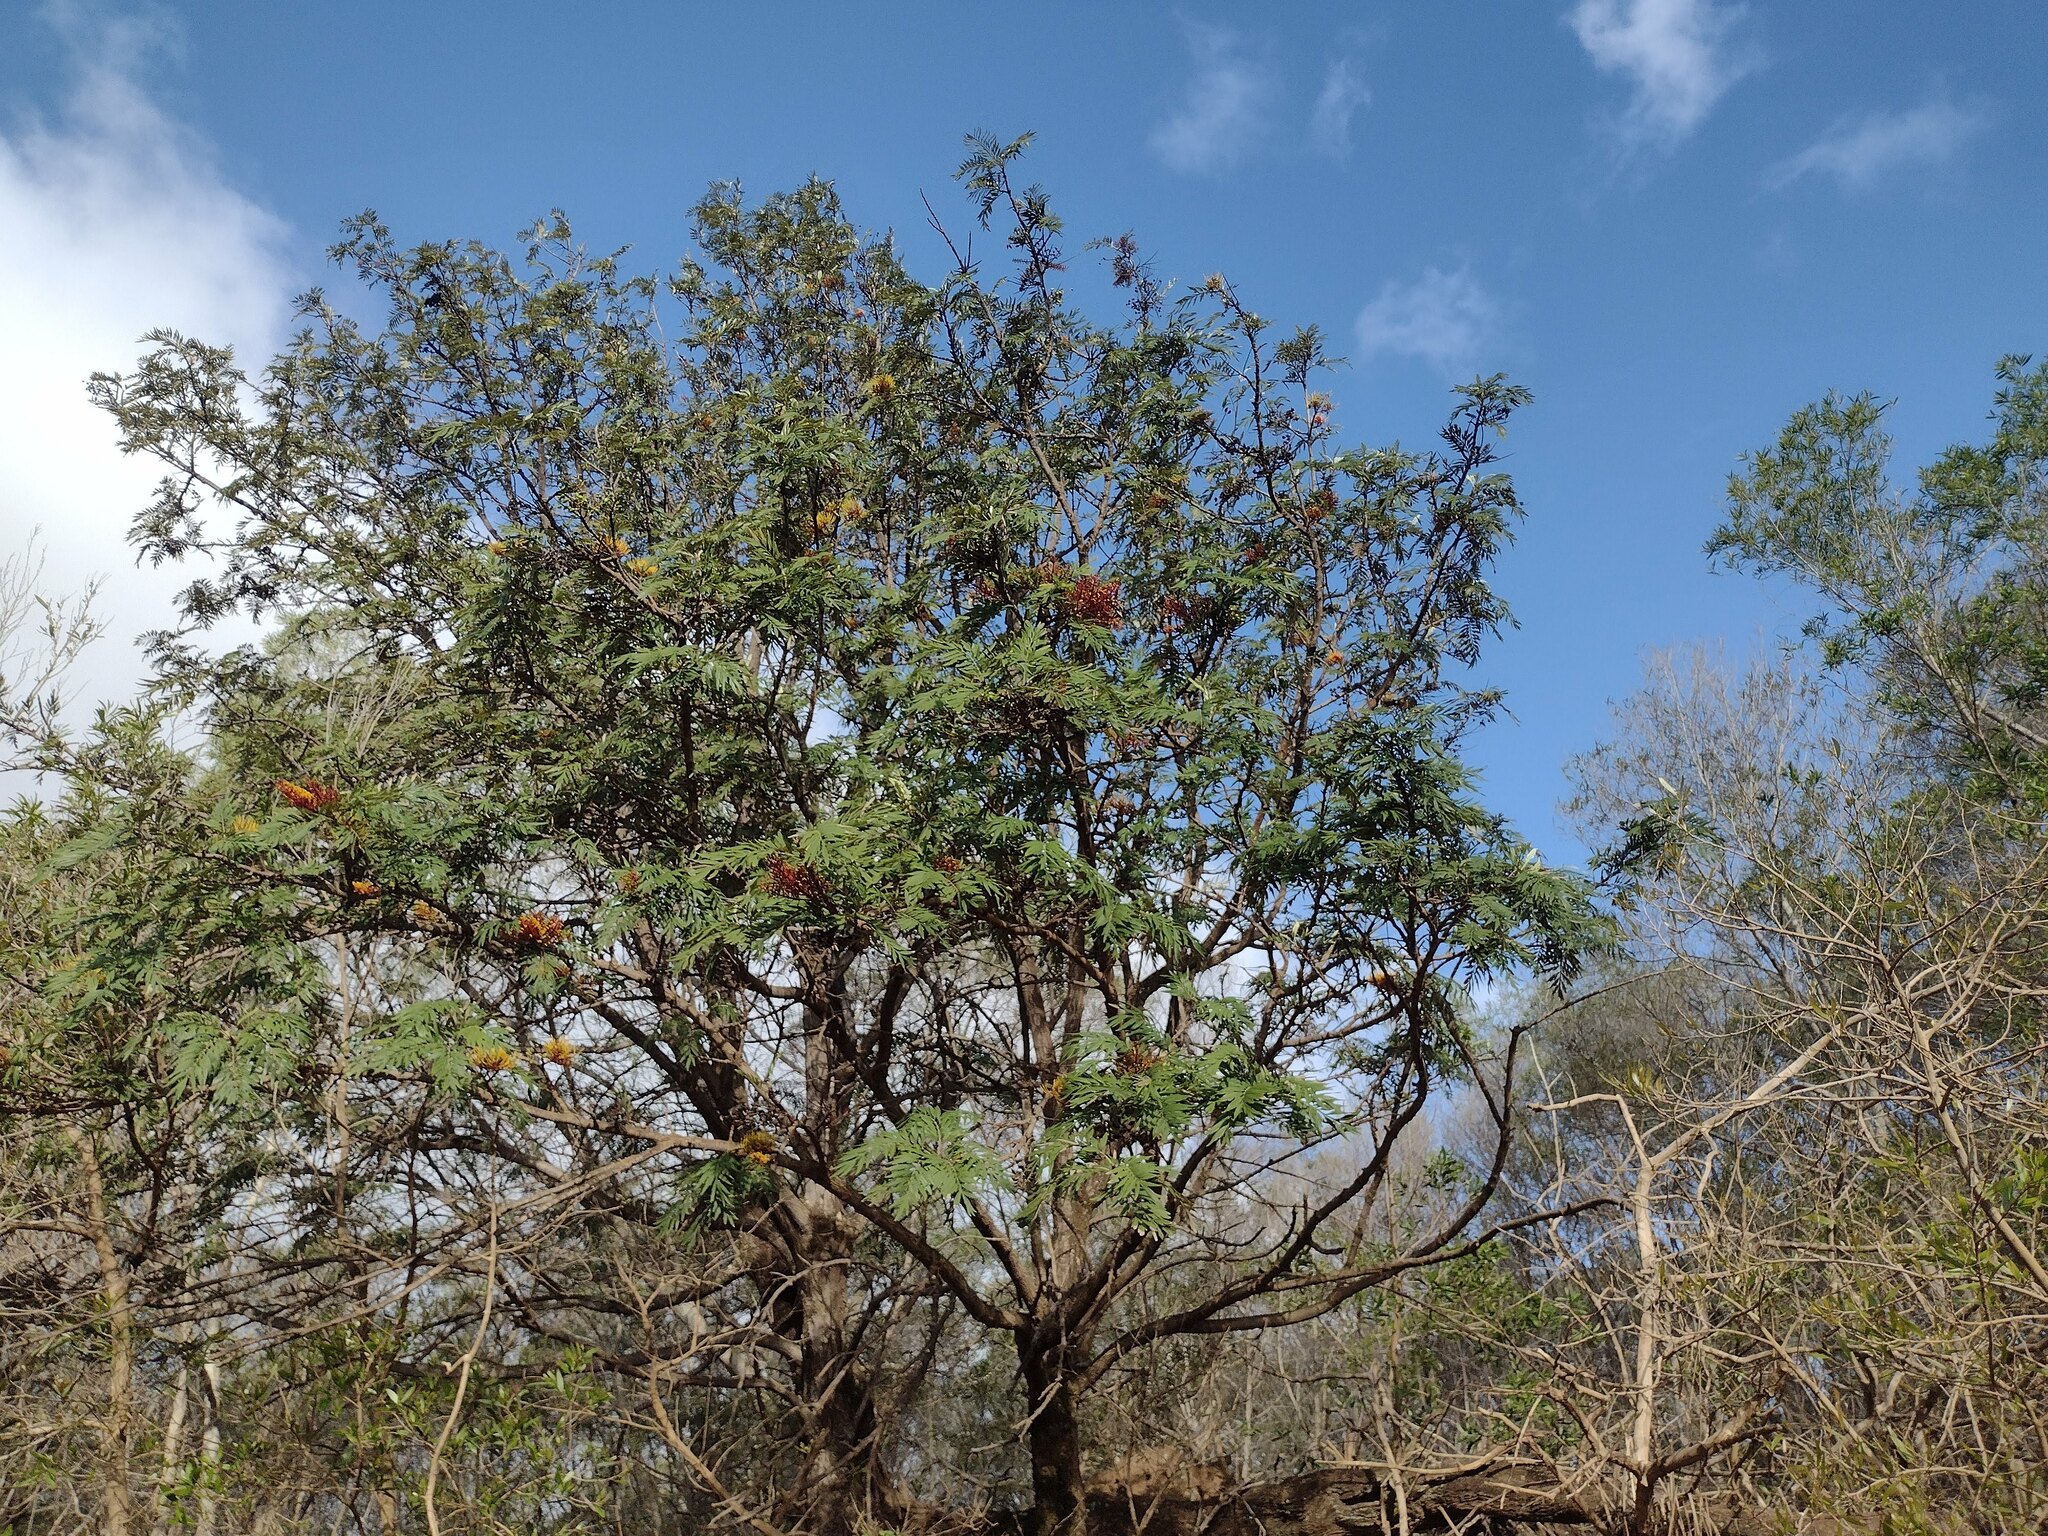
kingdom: Plantae
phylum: Tracheophyta
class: Magnoliopsida
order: Proteales
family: Proteaceae
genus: Grevillea
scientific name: Grevillea robusta
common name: Silkoak
